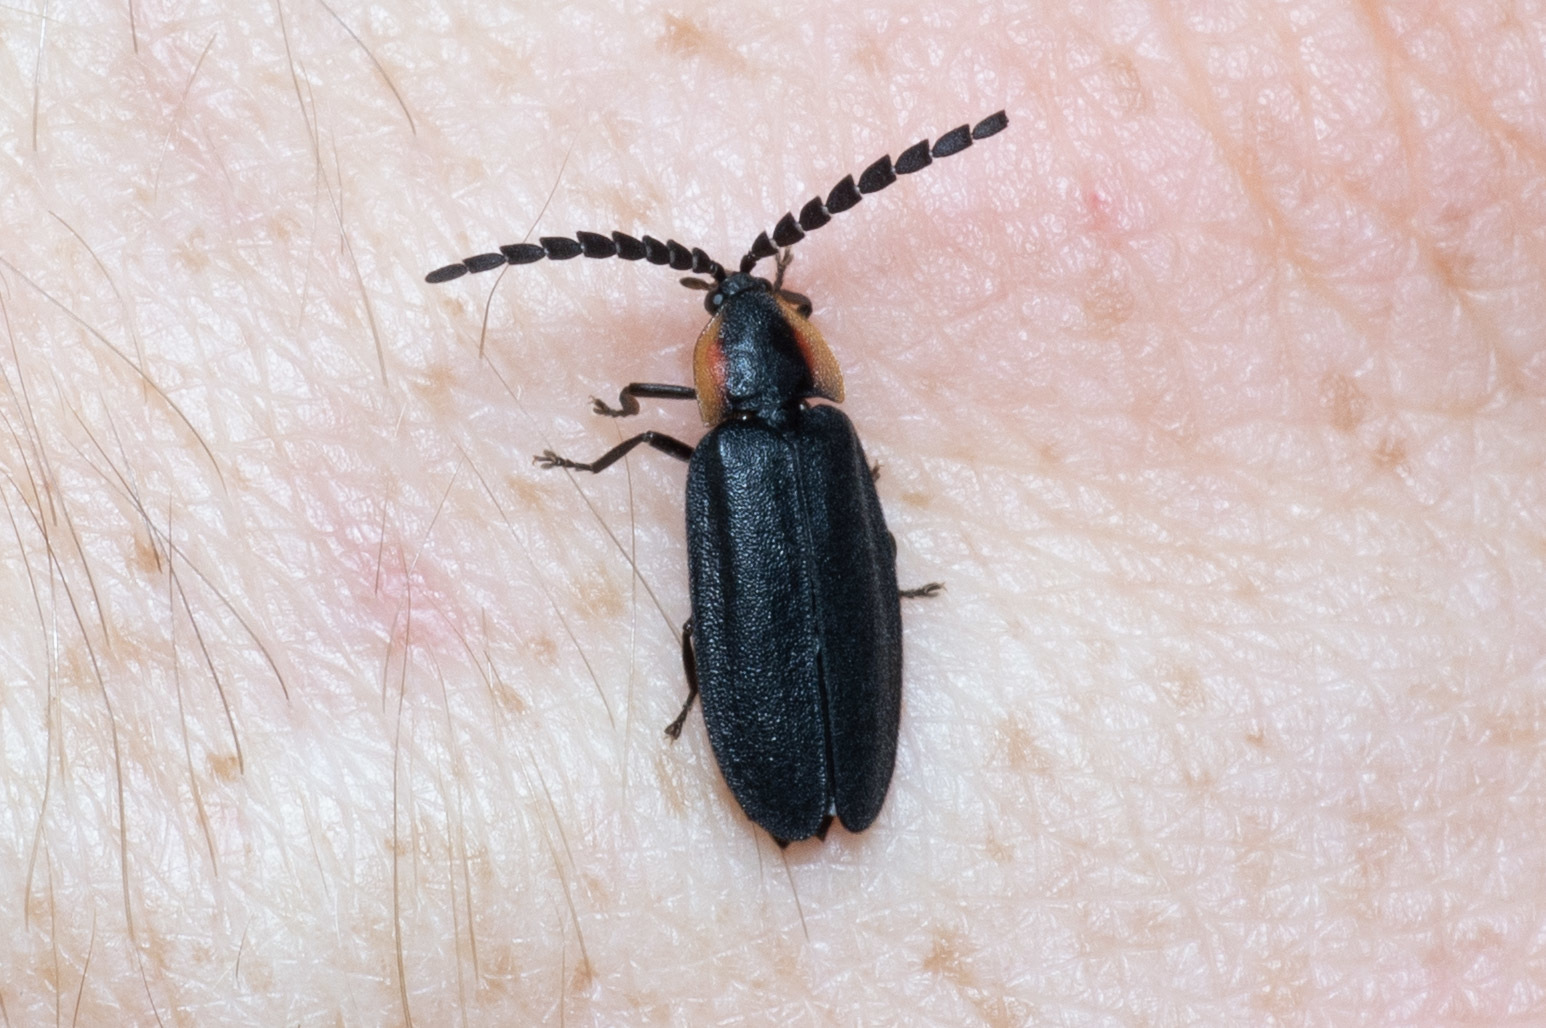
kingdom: Animalia
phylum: Arthropoda
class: Insecta
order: Coleoptera
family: Lampyridae
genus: Lucidota
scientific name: Lucidota atra
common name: Black firefly
